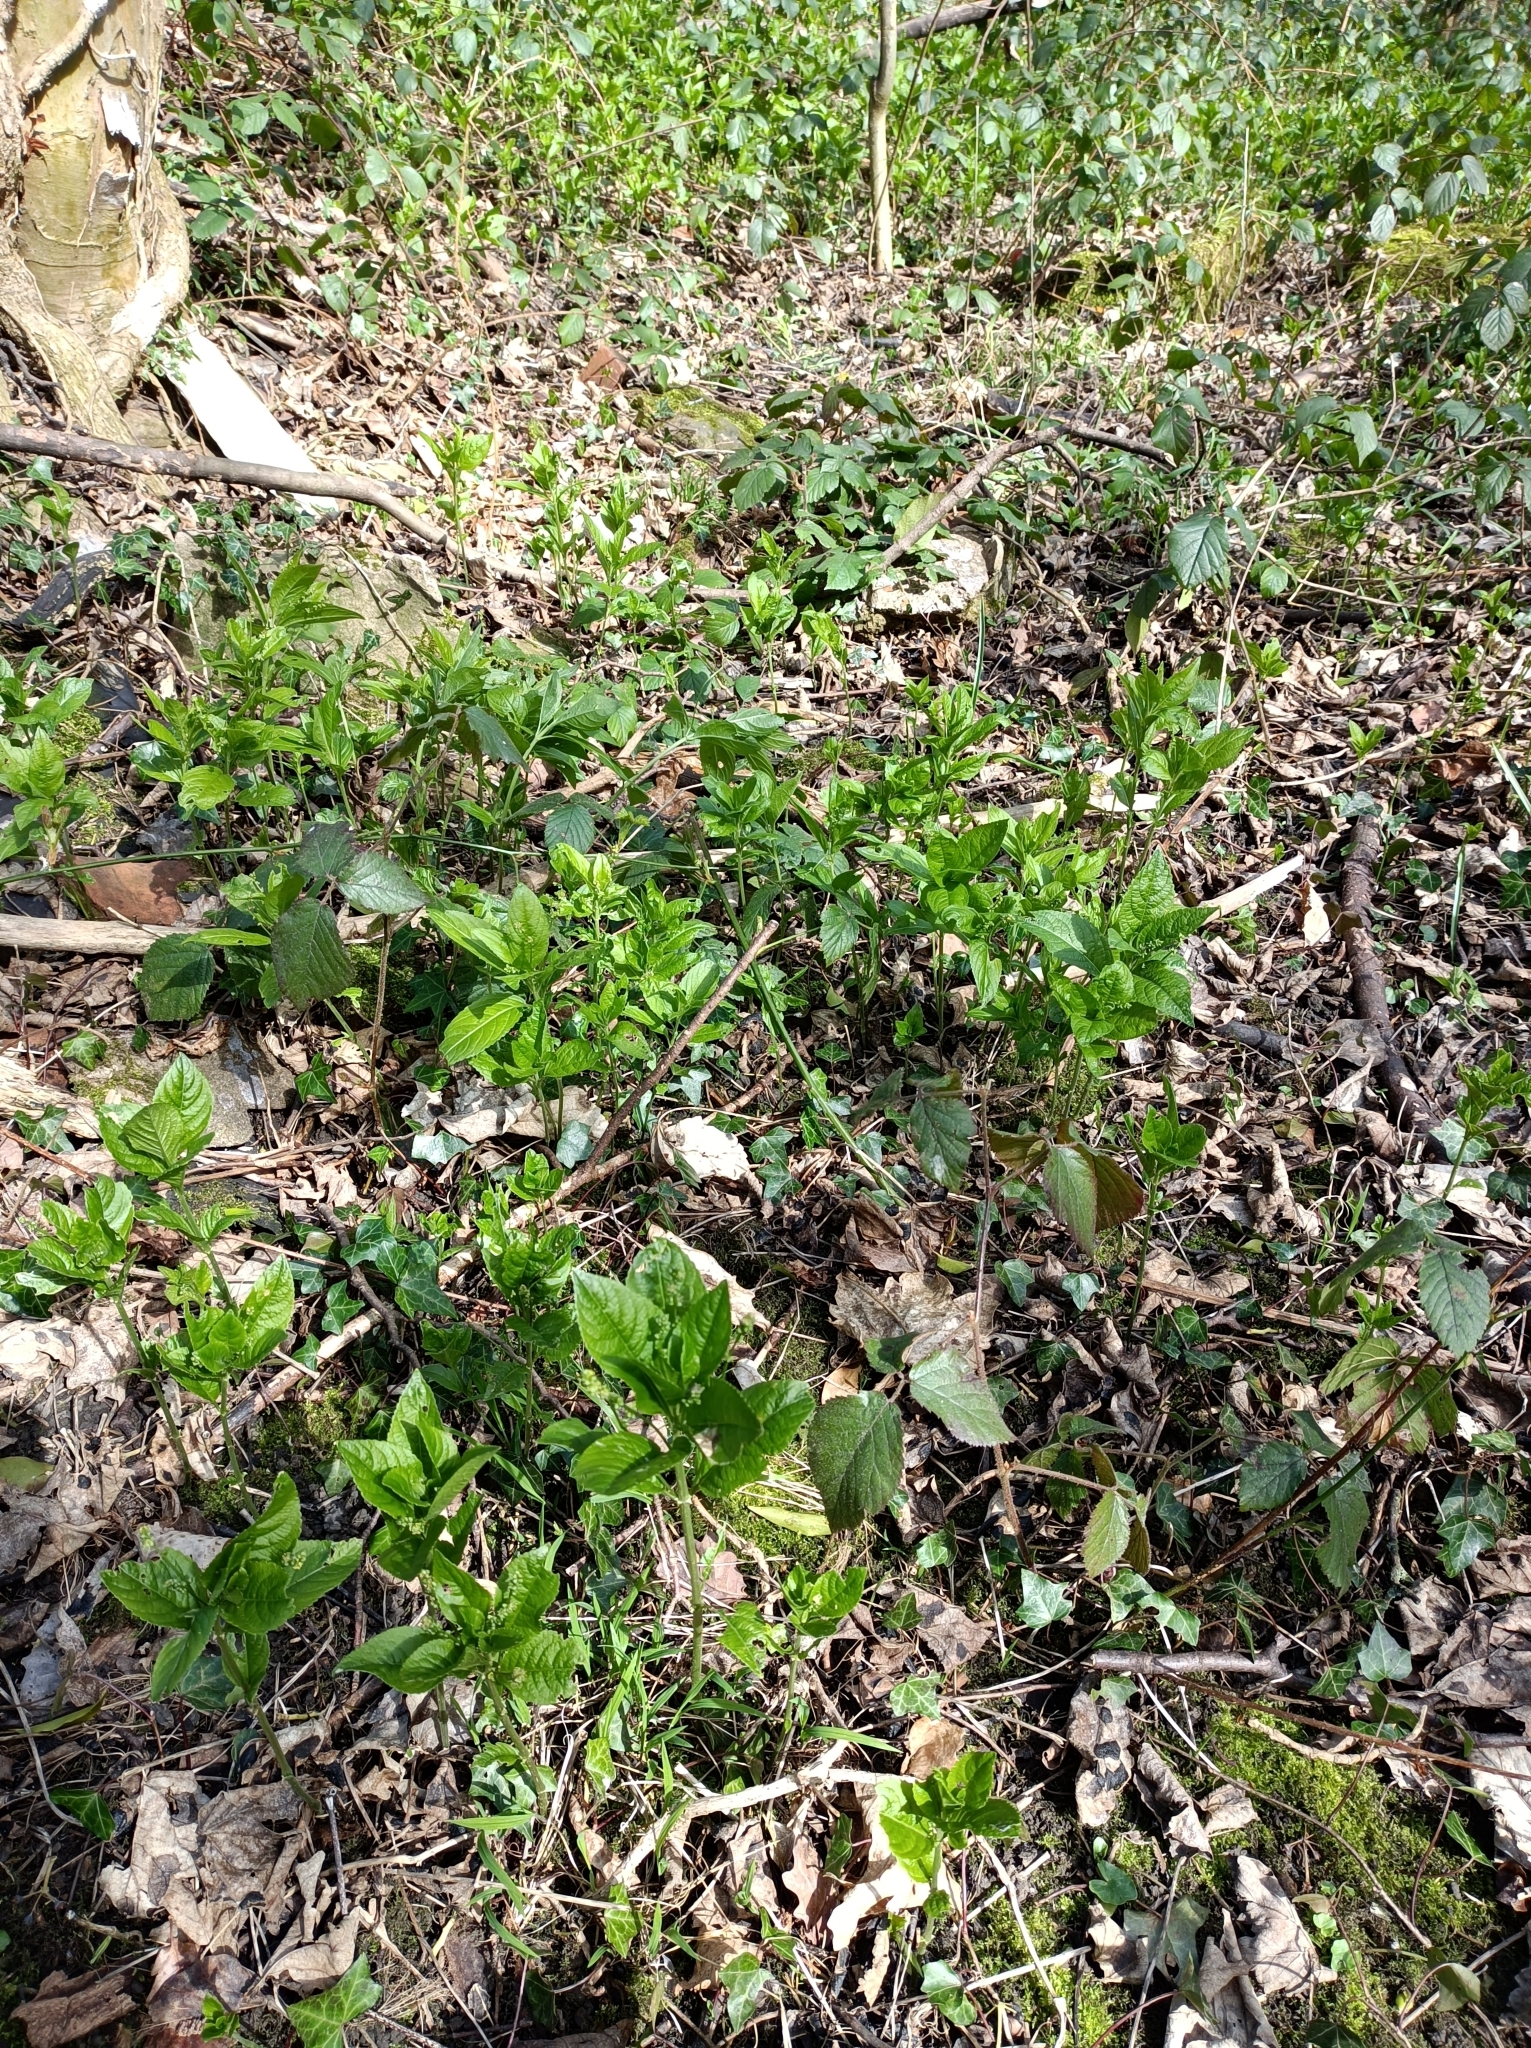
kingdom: Plantae
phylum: Tracheophyta
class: Magnoliopsida
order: Malpighiales
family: Euphorbiaceae
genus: Mercurialis
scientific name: Mercurialis perennis
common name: Dog mercury
